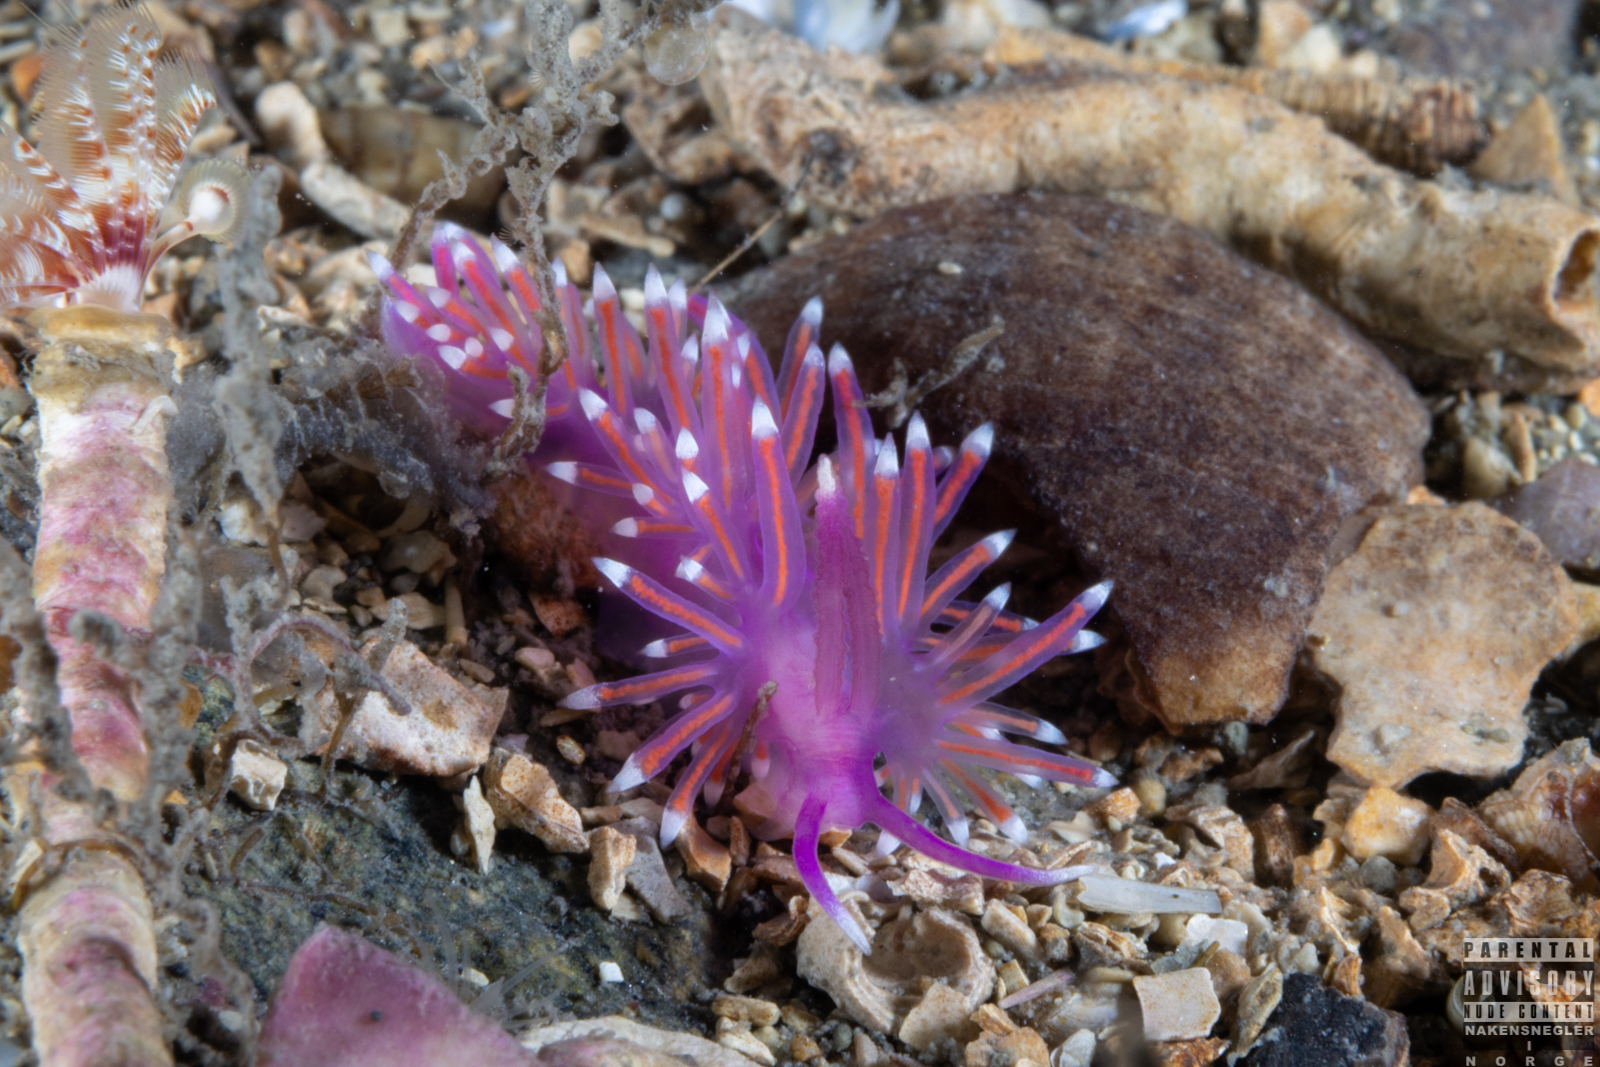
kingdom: Animalia
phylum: Mollusca
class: Gastropoda
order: Nudibranchia
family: Flabellinidae
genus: Edmundsella
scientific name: Edmundsella pedata
